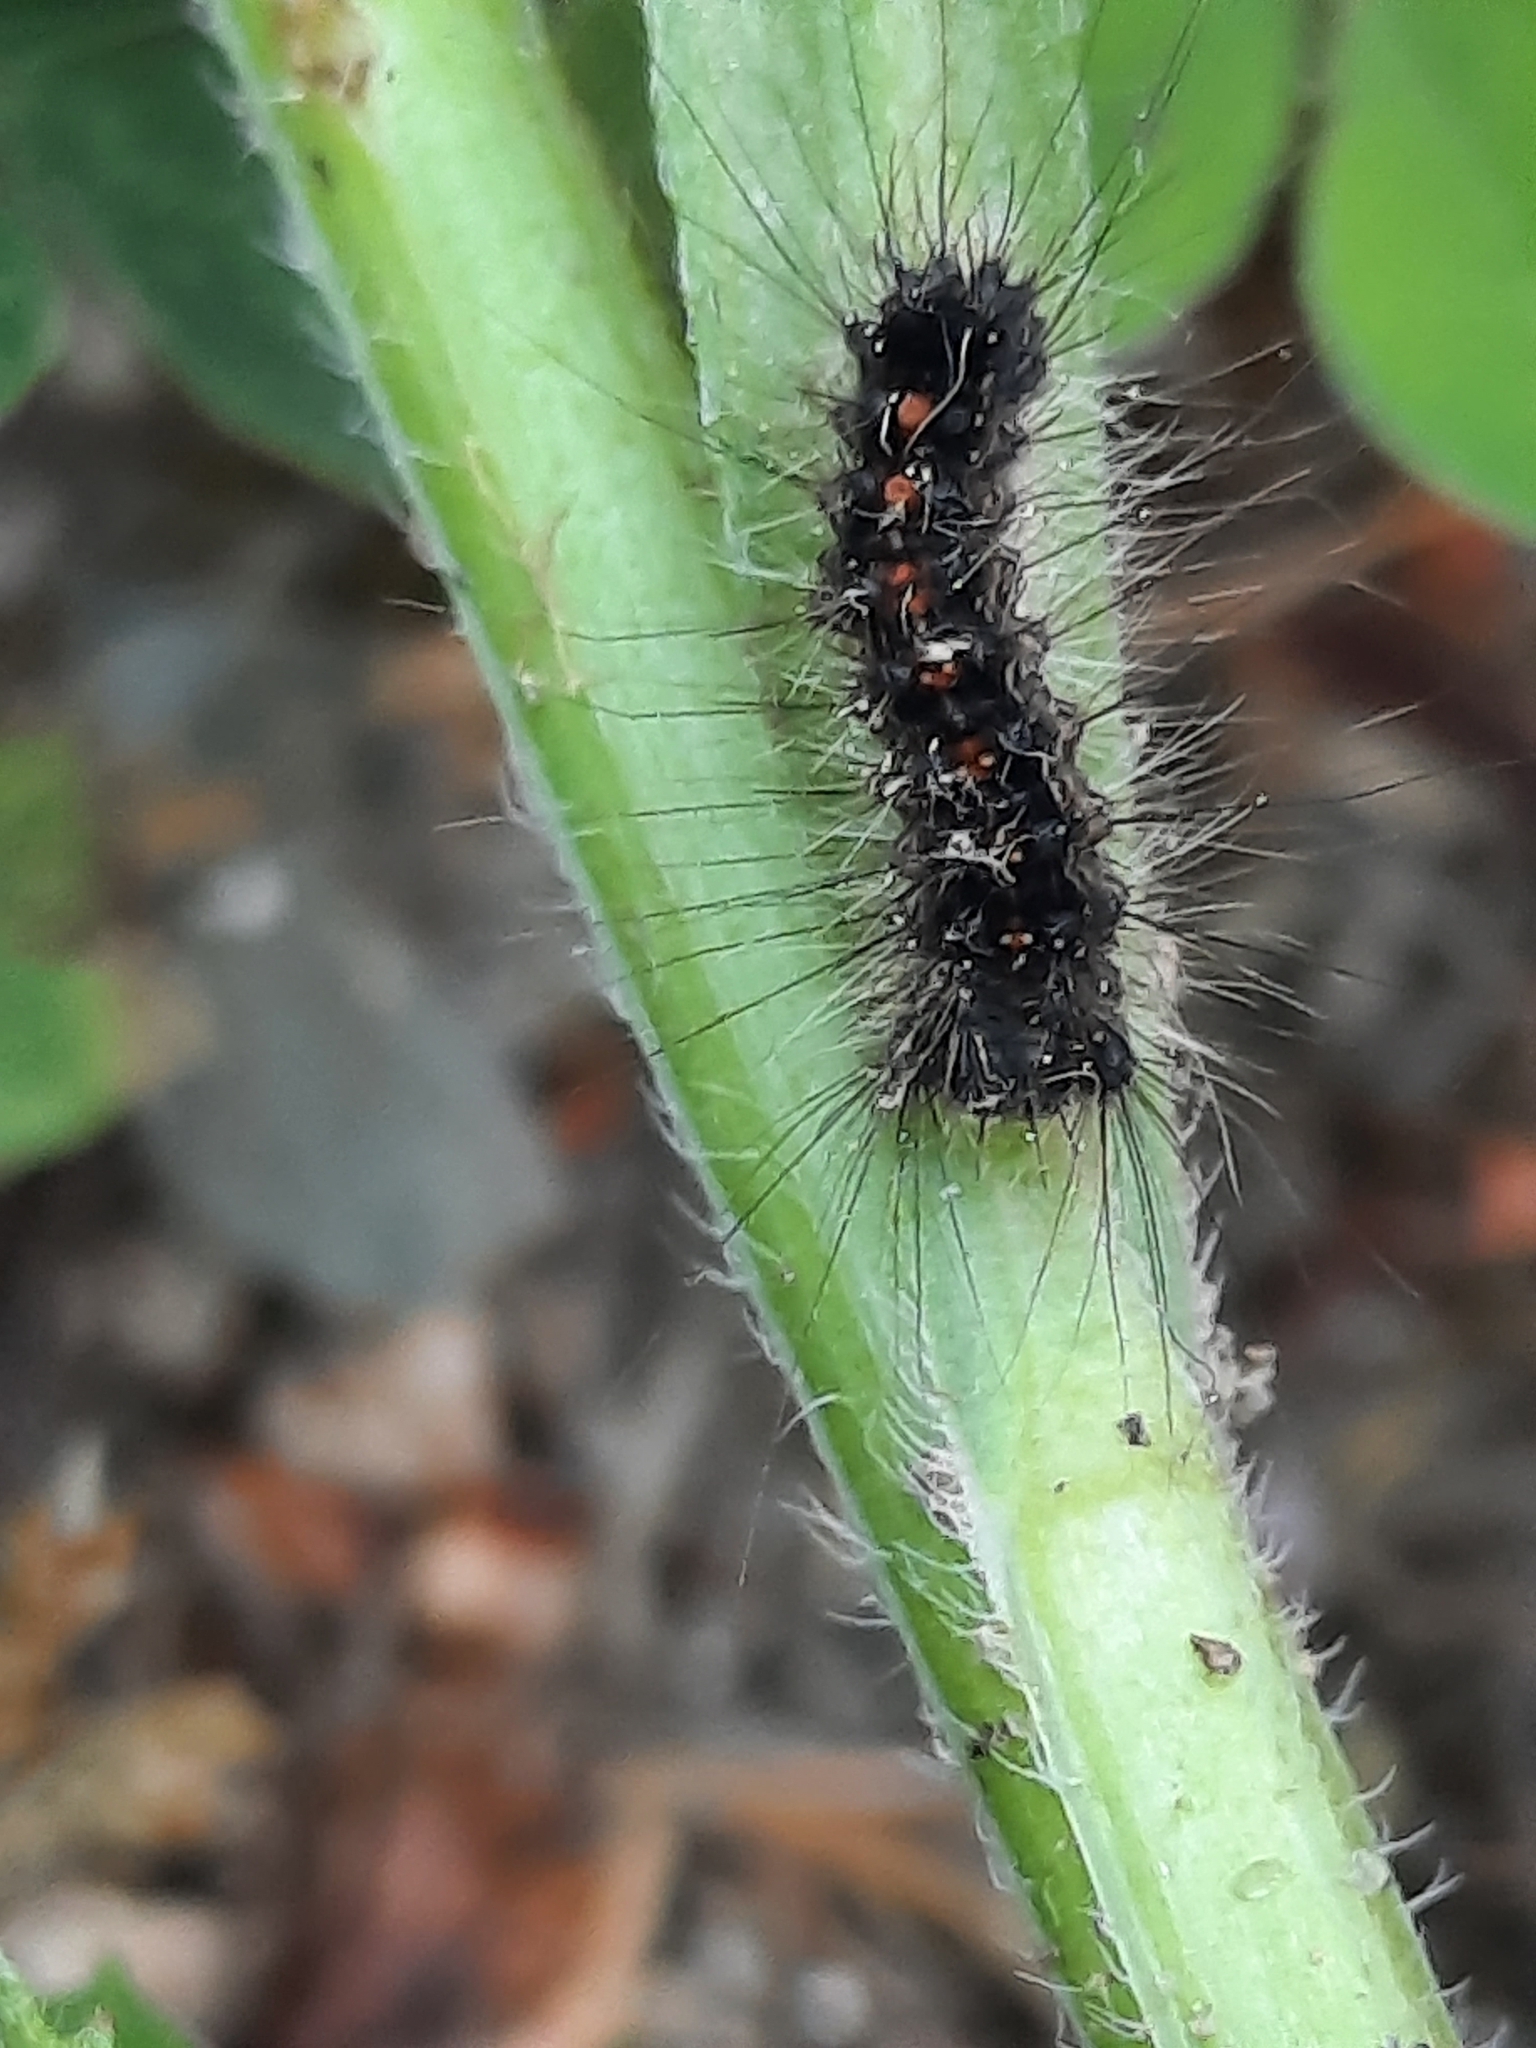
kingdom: Animalia
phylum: Arthropoda
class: Insecta
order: Lepidoptera
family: Erebidae
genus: Lymantria
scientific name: Lymantria dispar
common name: Gypsy moth
